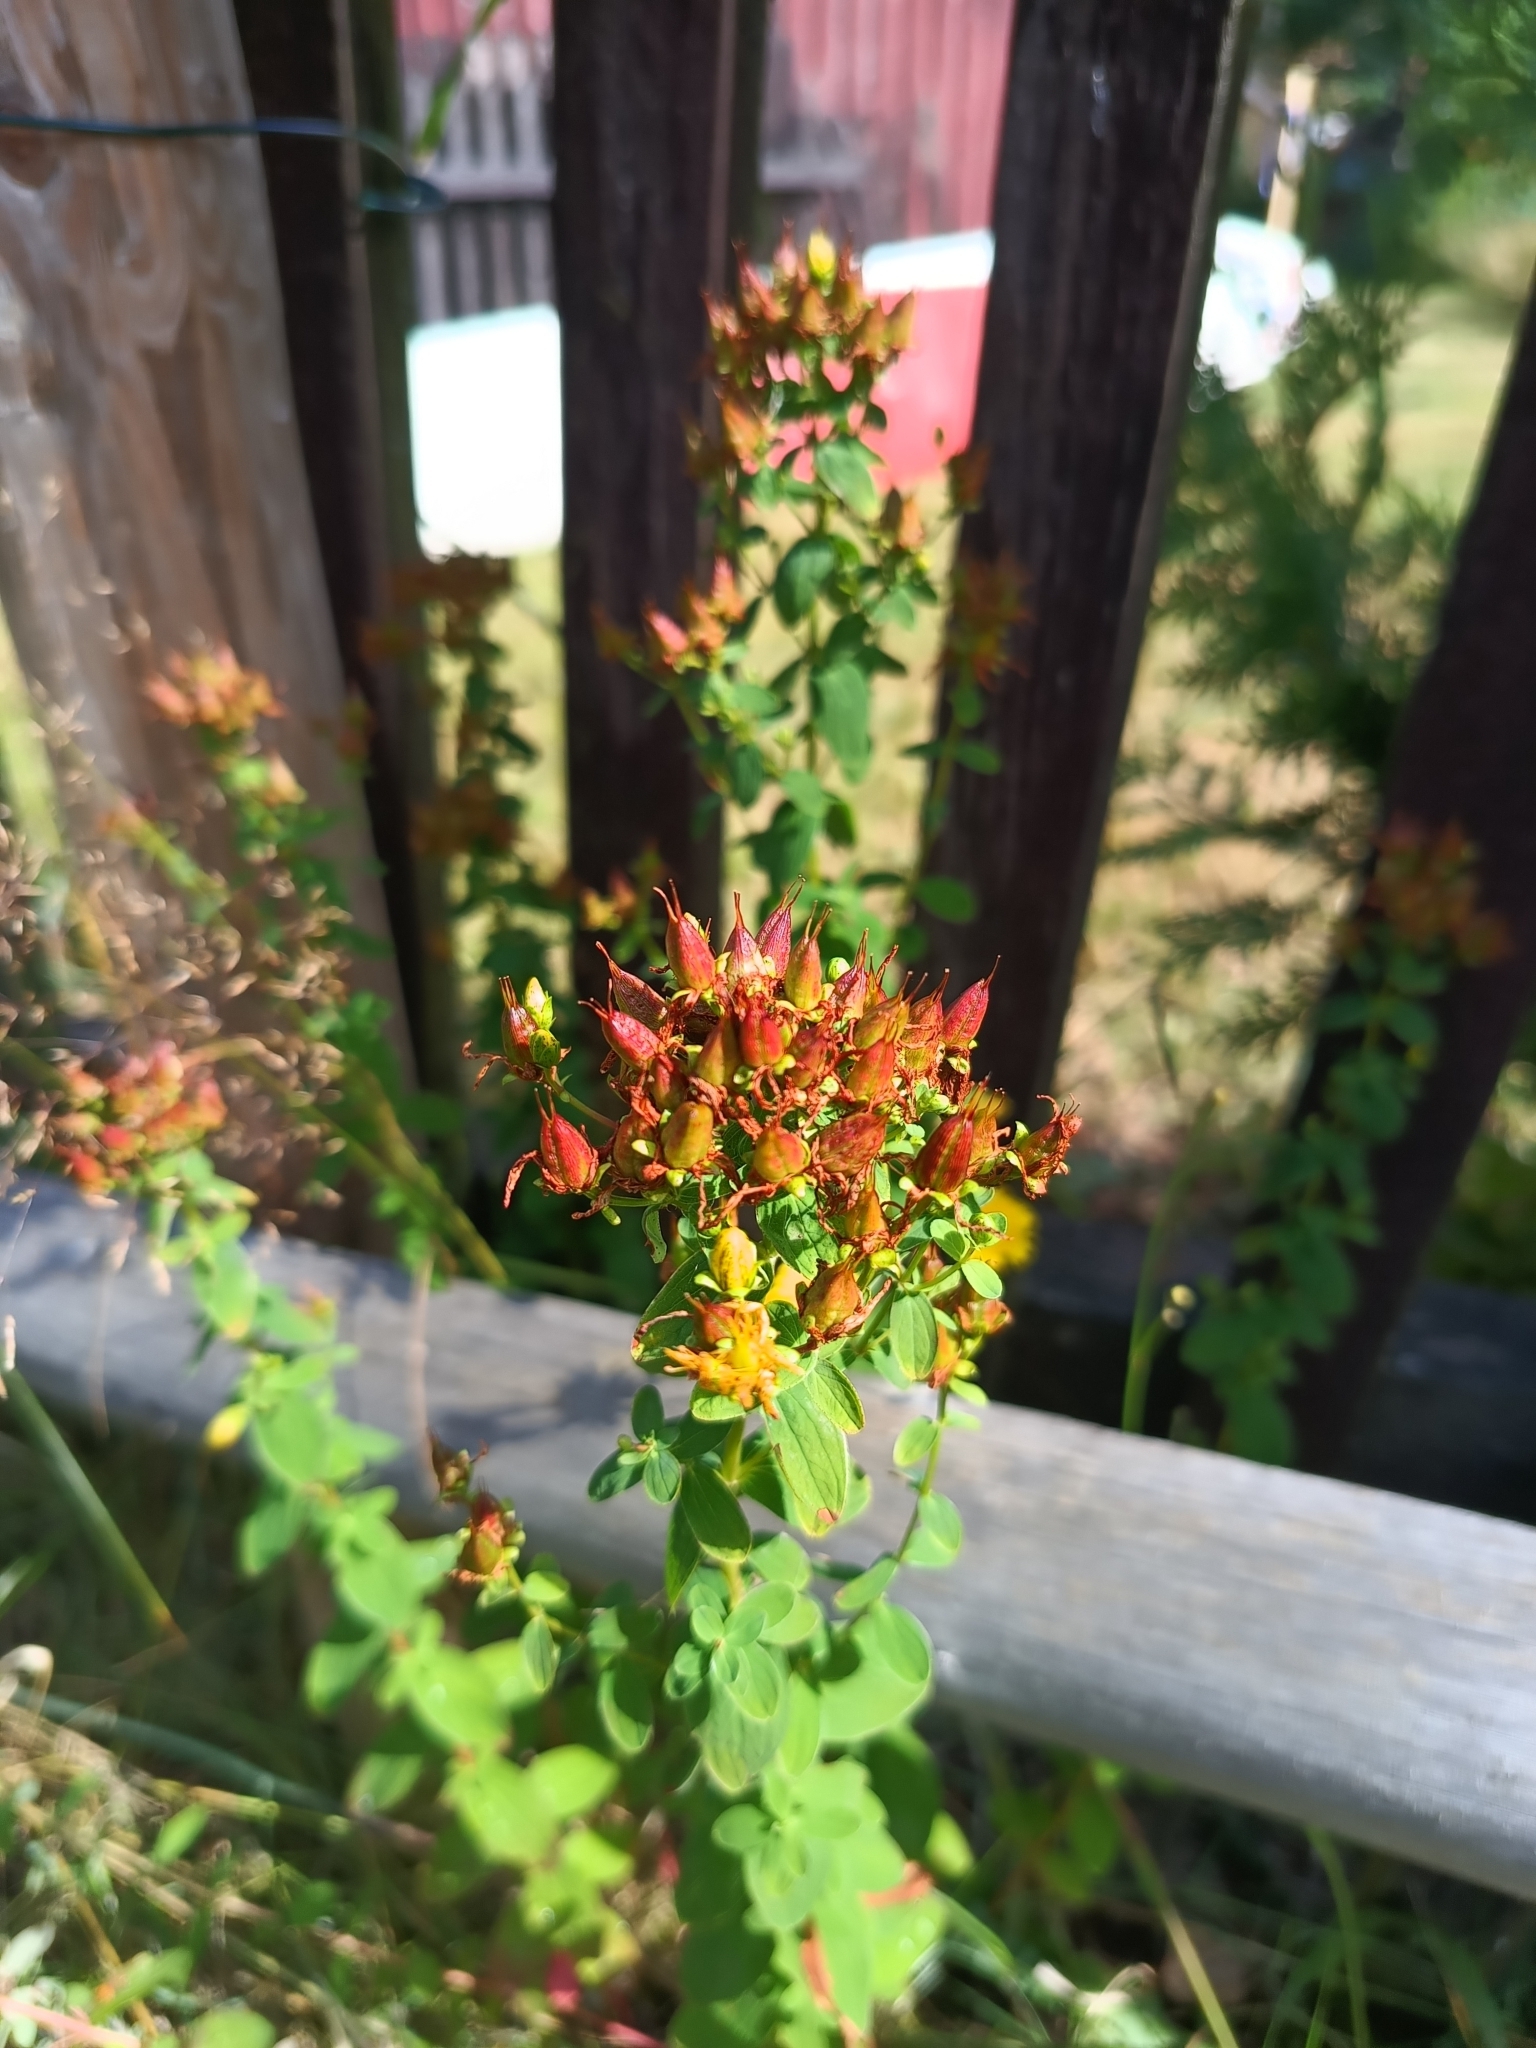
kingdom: Plantae
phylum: Tracheophyta
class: Magnoliopsida
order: Malpighiales
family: Hypericaceae
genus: Hypericum
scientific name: Hypericum maculatum
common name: Imperforate st. john's-wort
